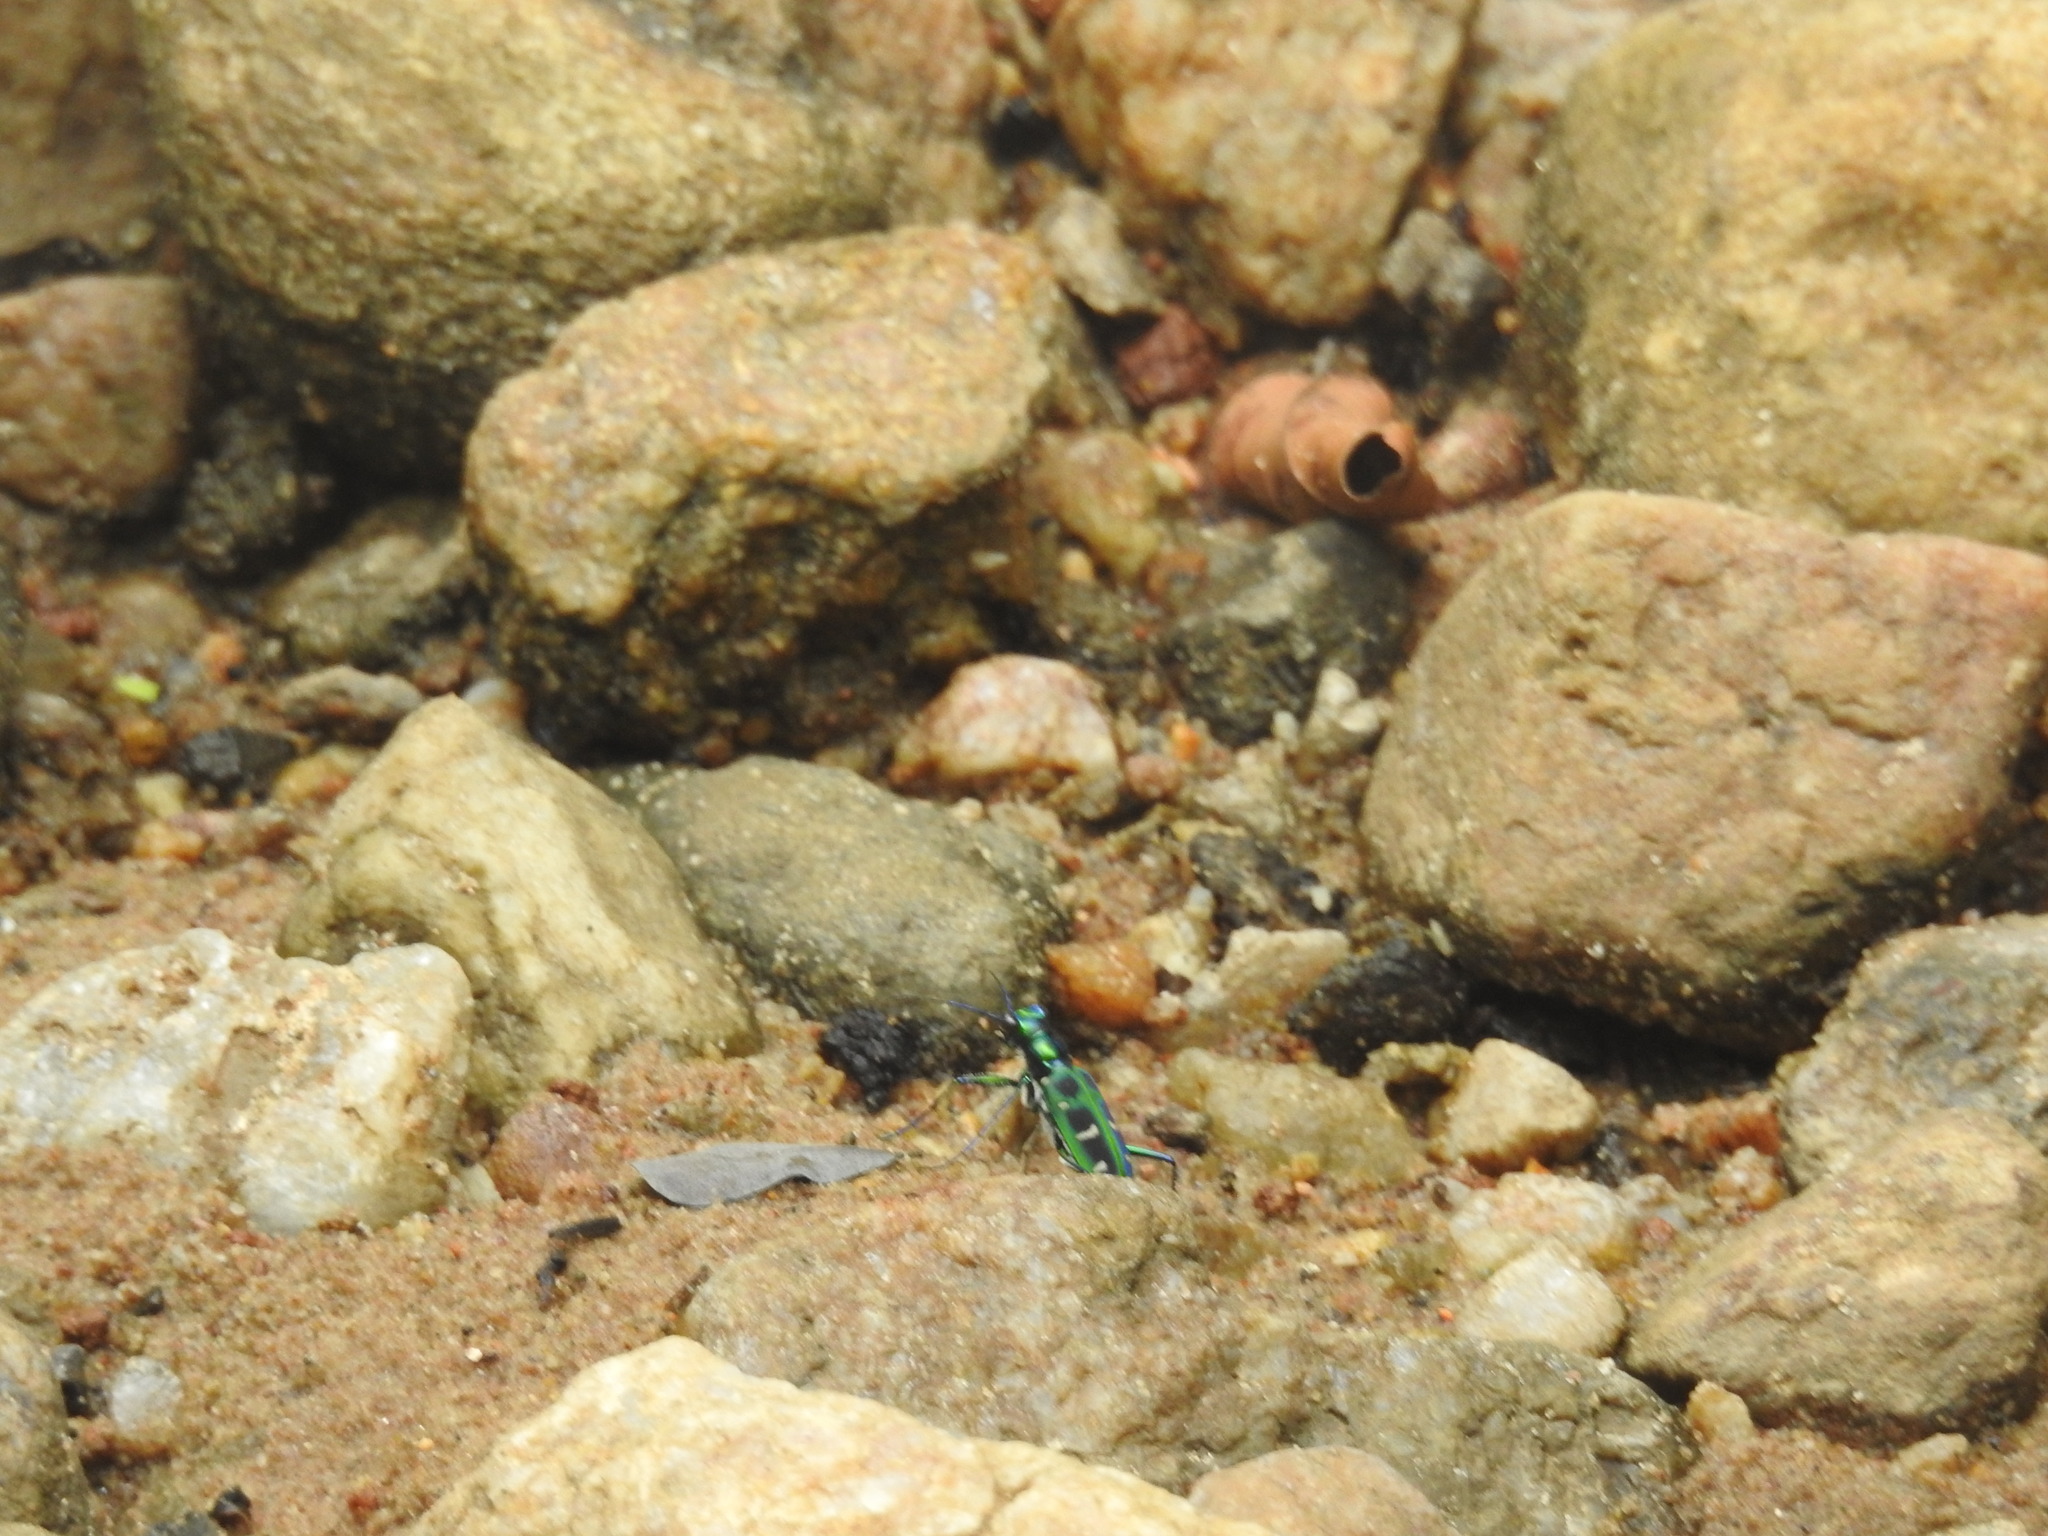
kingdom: Animalia
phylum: Arthropoda
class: Insecta
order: Coleoptera
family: Carabidae
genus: Cicindela
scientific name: Cicindela barmanica
